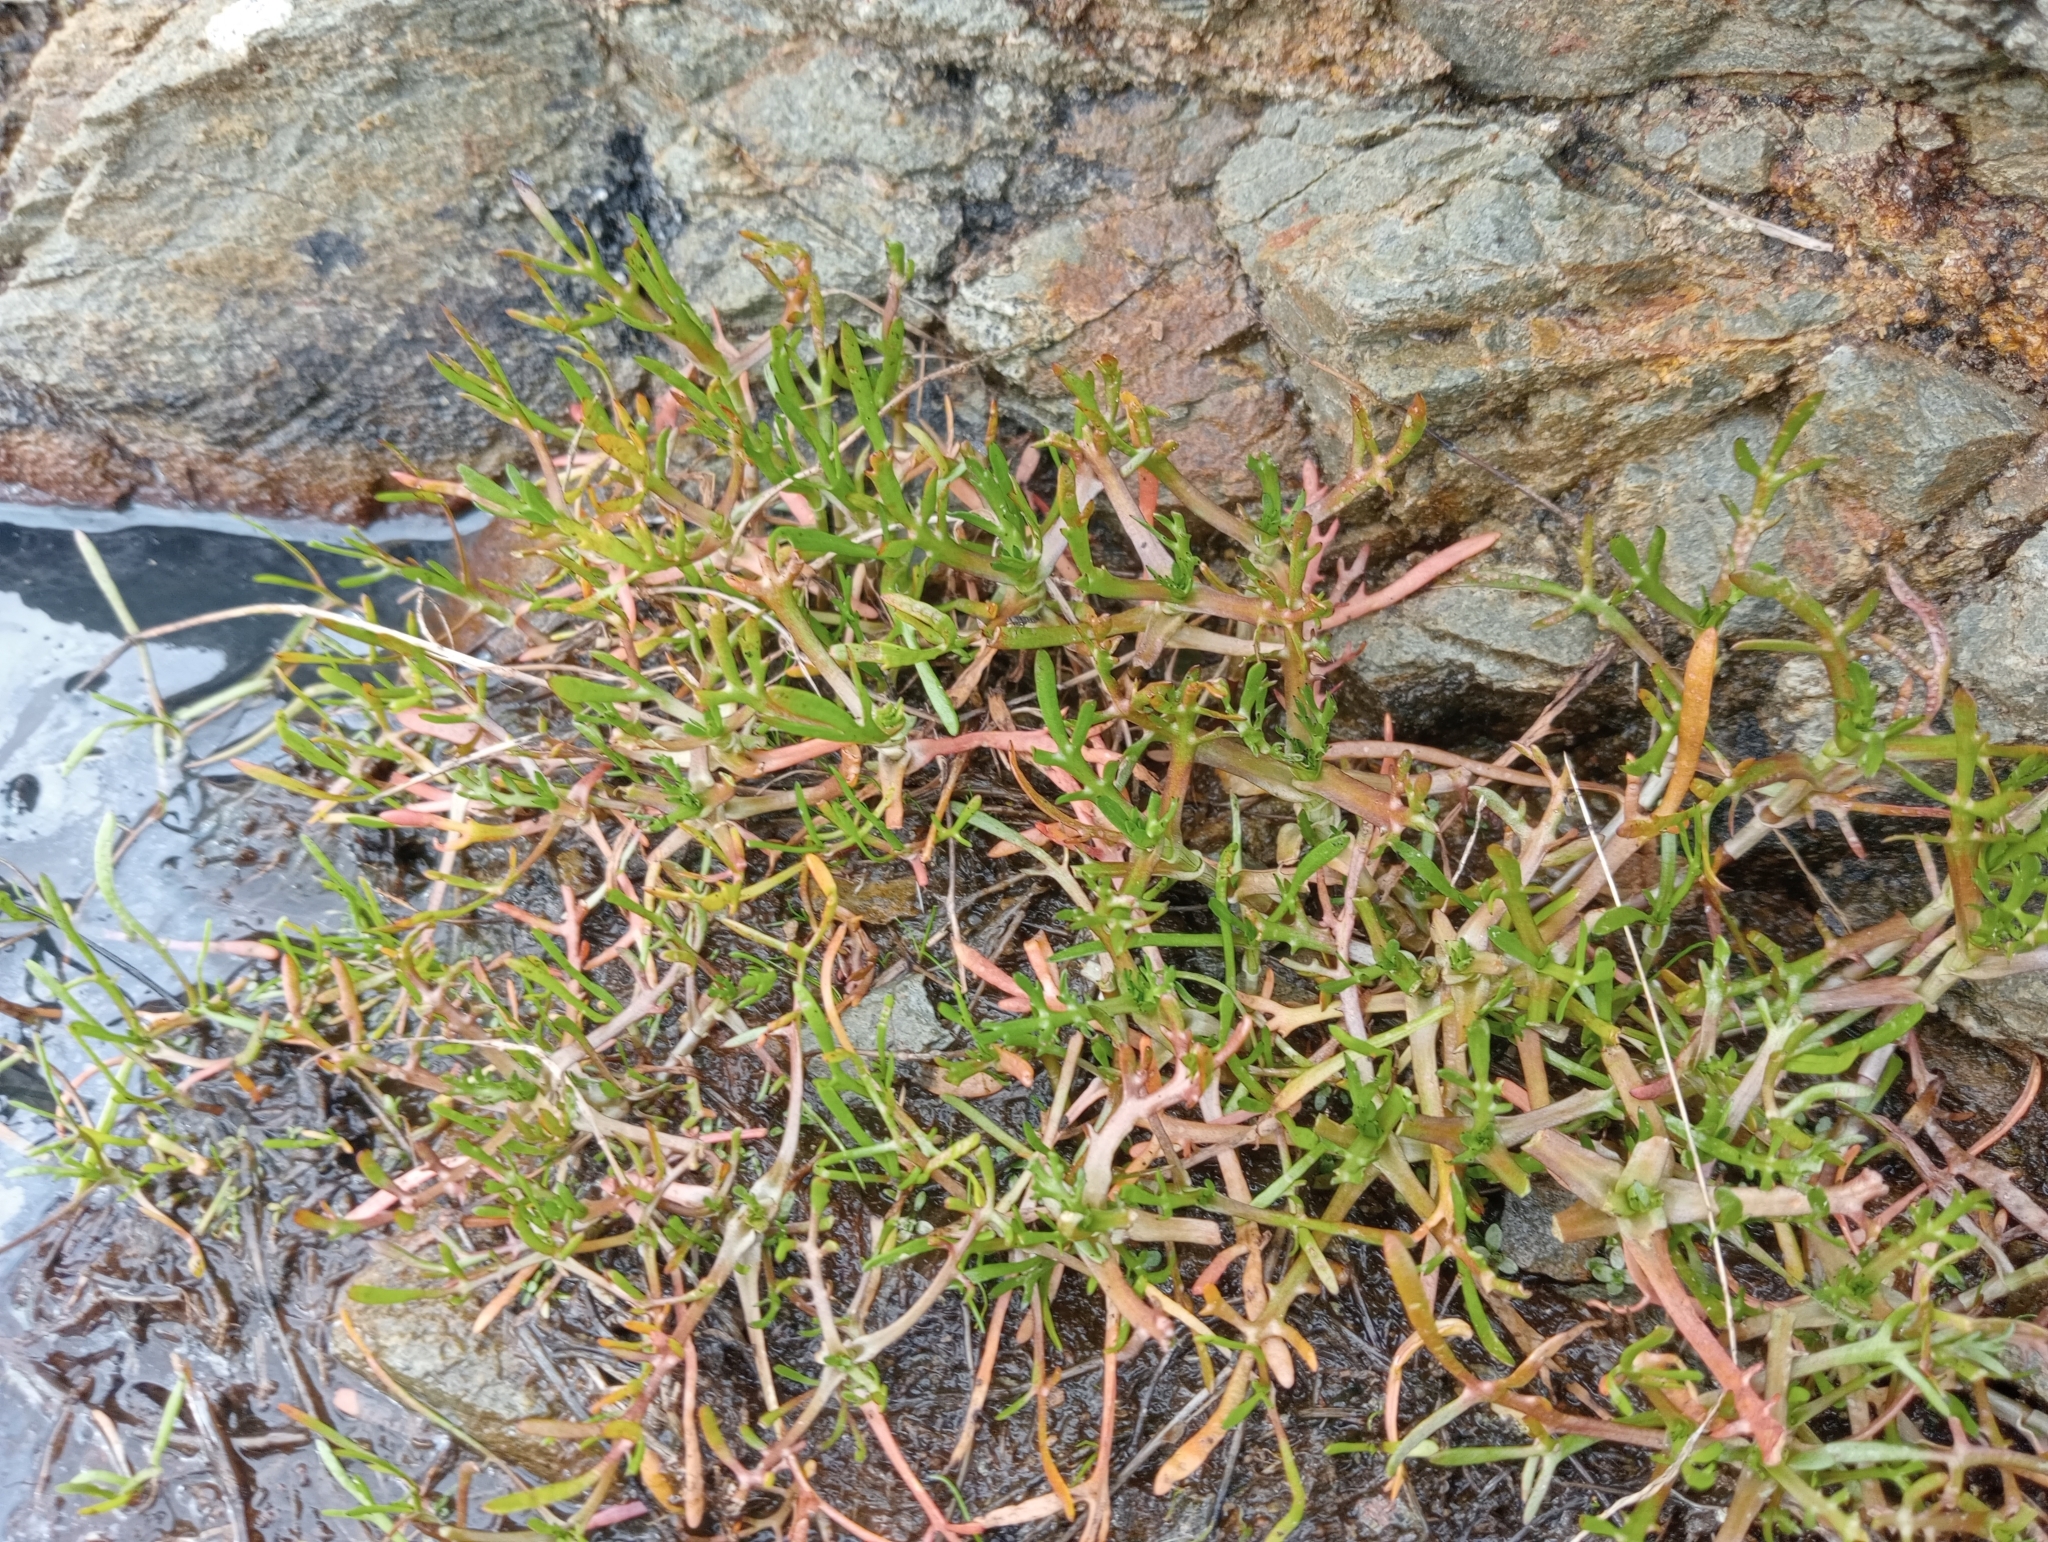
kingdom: Plantae
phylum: Tracheophyta
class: Magnoliopsida
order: Asterales
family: Asteraceae
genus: Cotula
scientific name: Cotula coronopifolia
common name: Buttonweed
